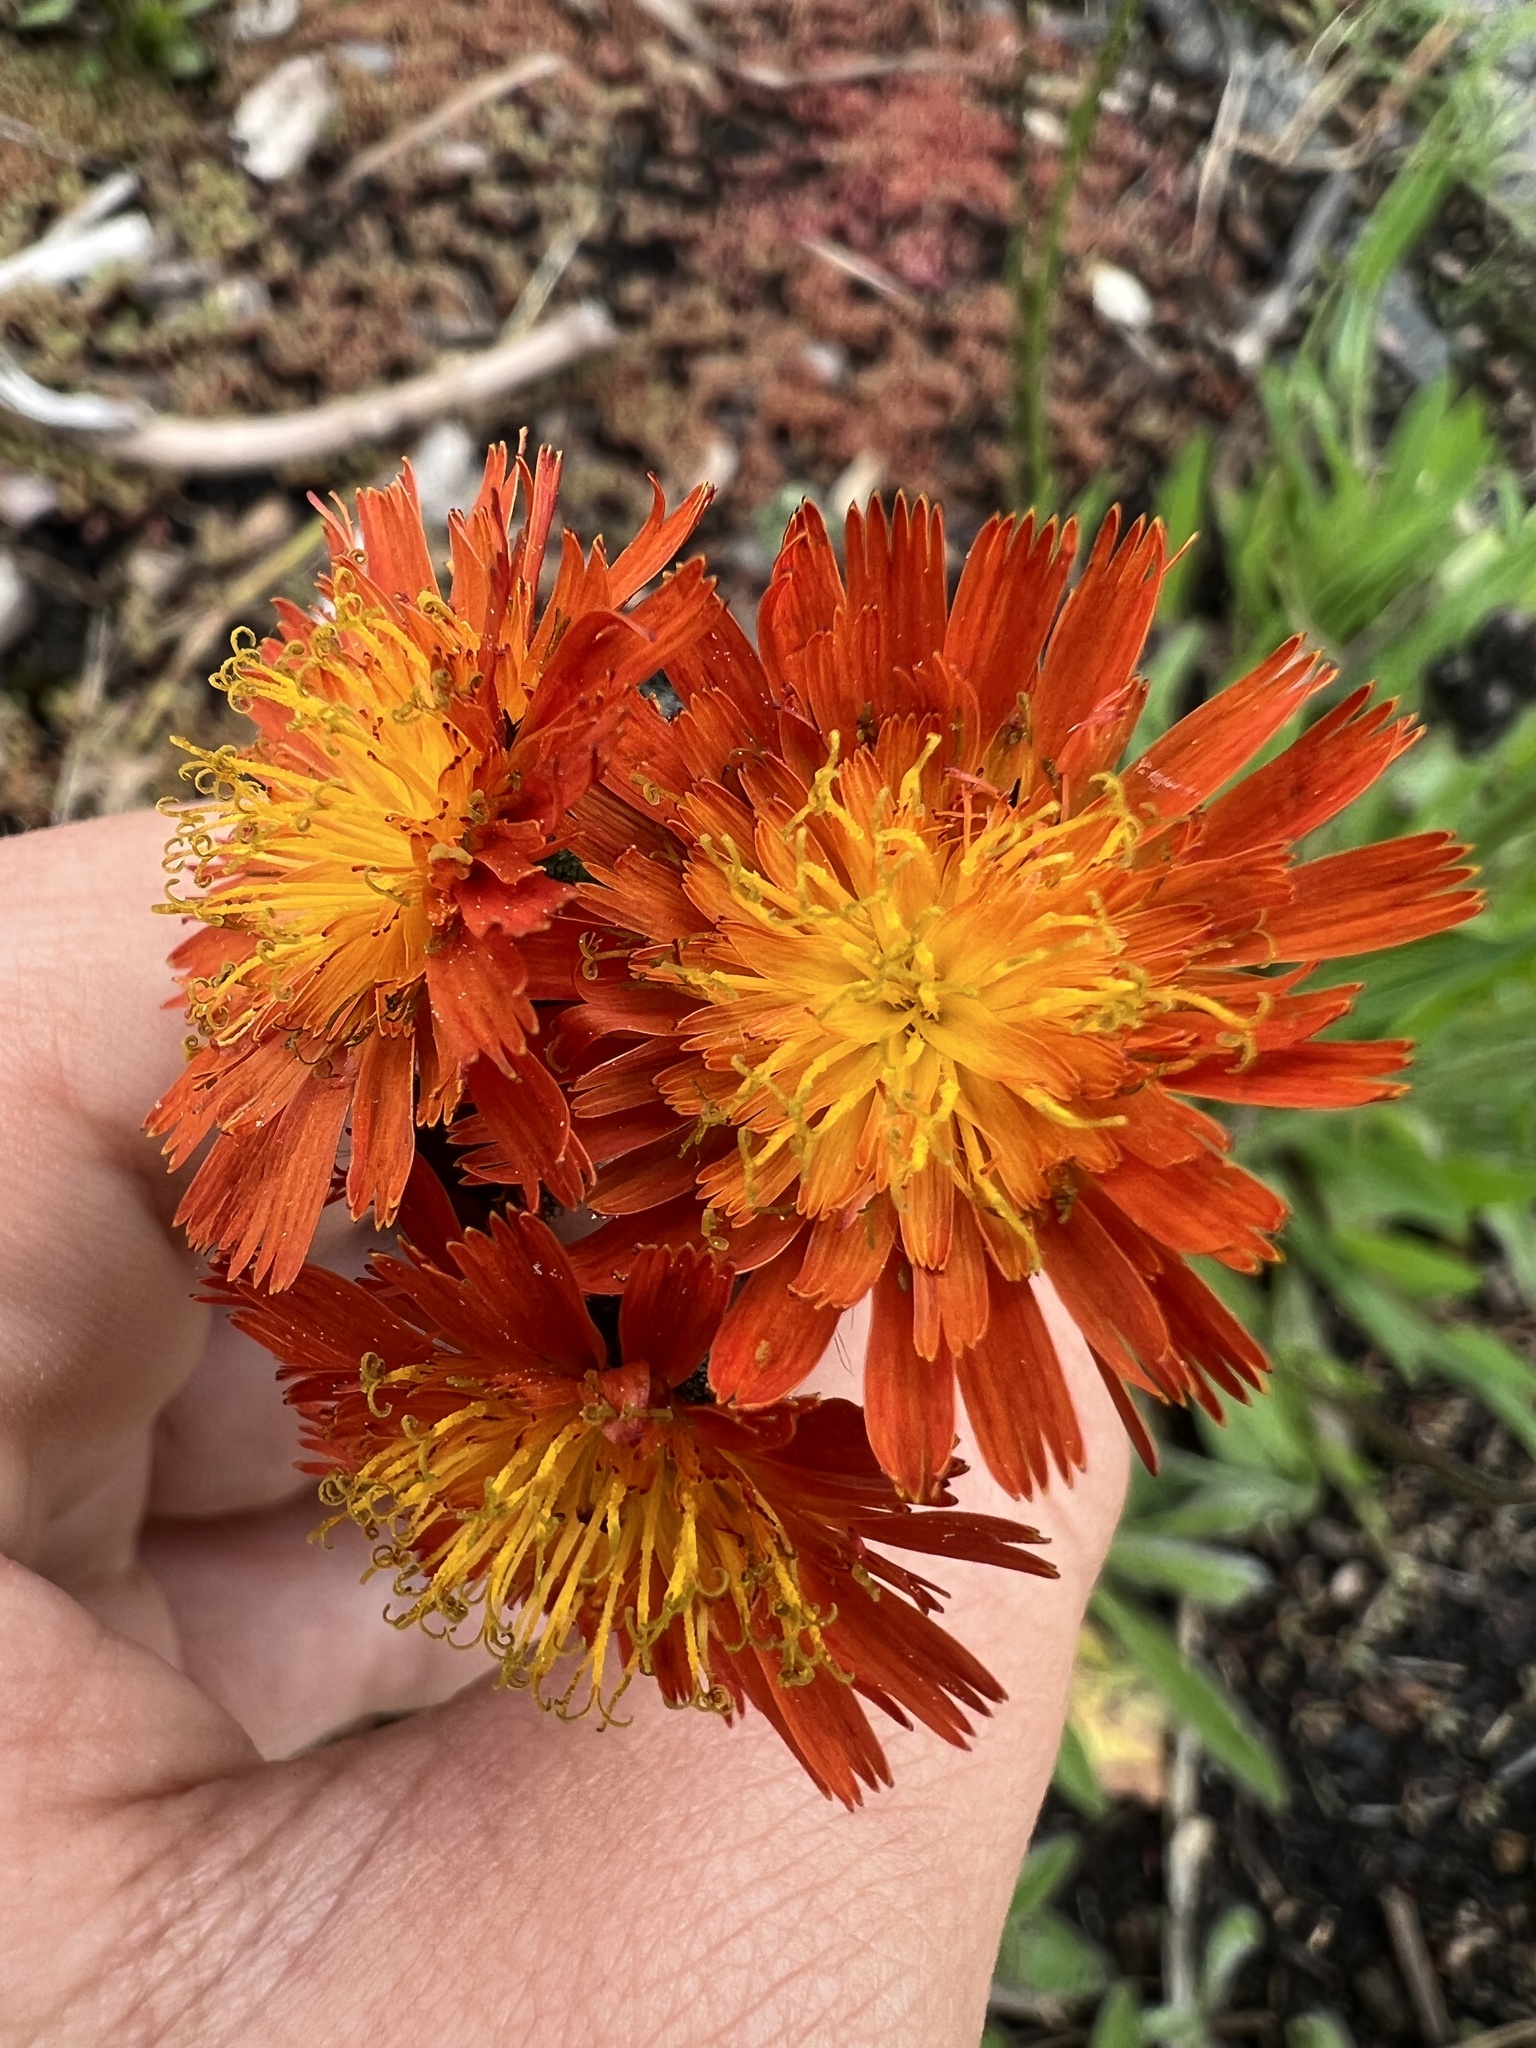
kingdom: Plantae
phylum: Tracheophyta
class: Magnoliopsida
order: Asterales
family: Asteraceae
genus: Pilosella
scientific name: Pilosella aurantiaca
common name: Fox-and-cubs
